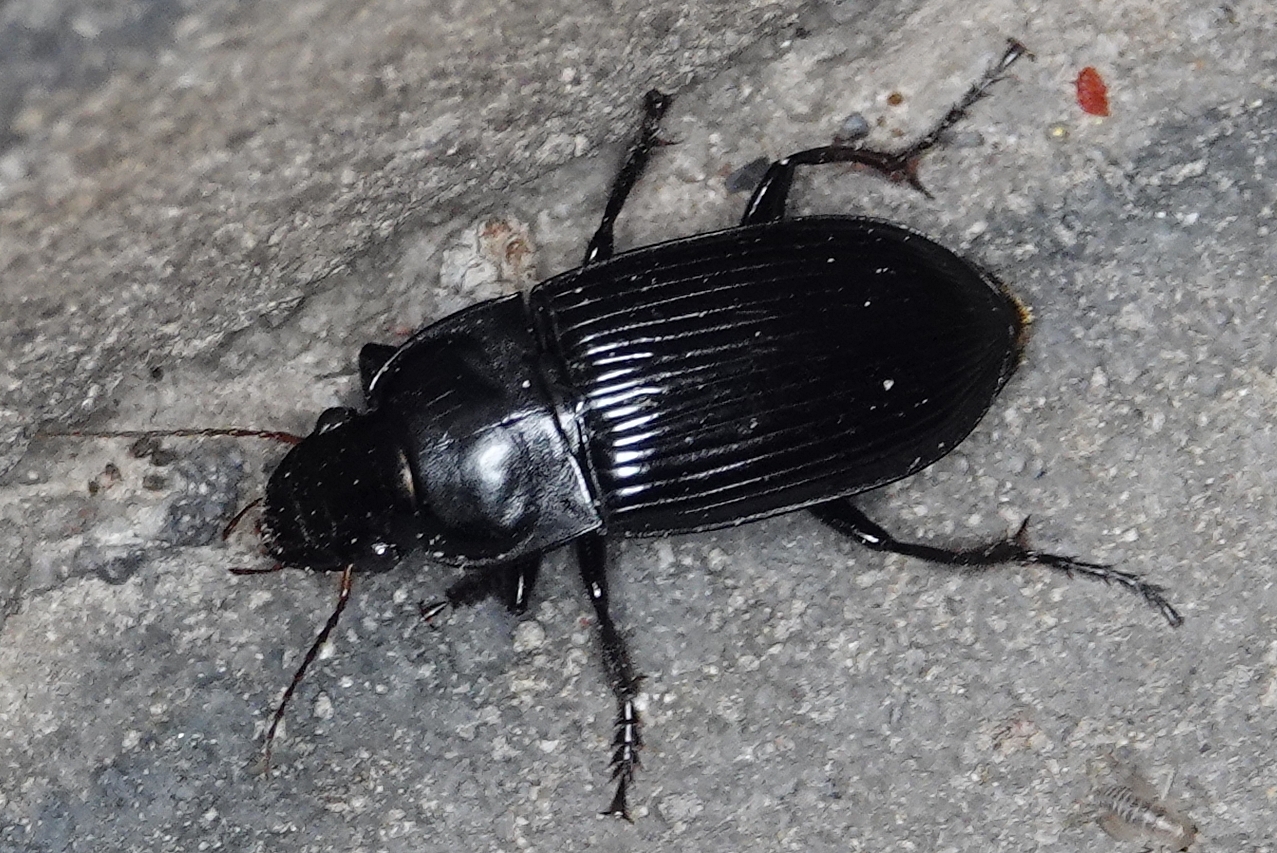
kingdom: Animalia
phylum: Arthropoda
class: Insecta
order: Coleoptera
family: Carabidae
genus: Harpalus
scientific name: Harpalus caliginosus
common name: Murky ground beetle
